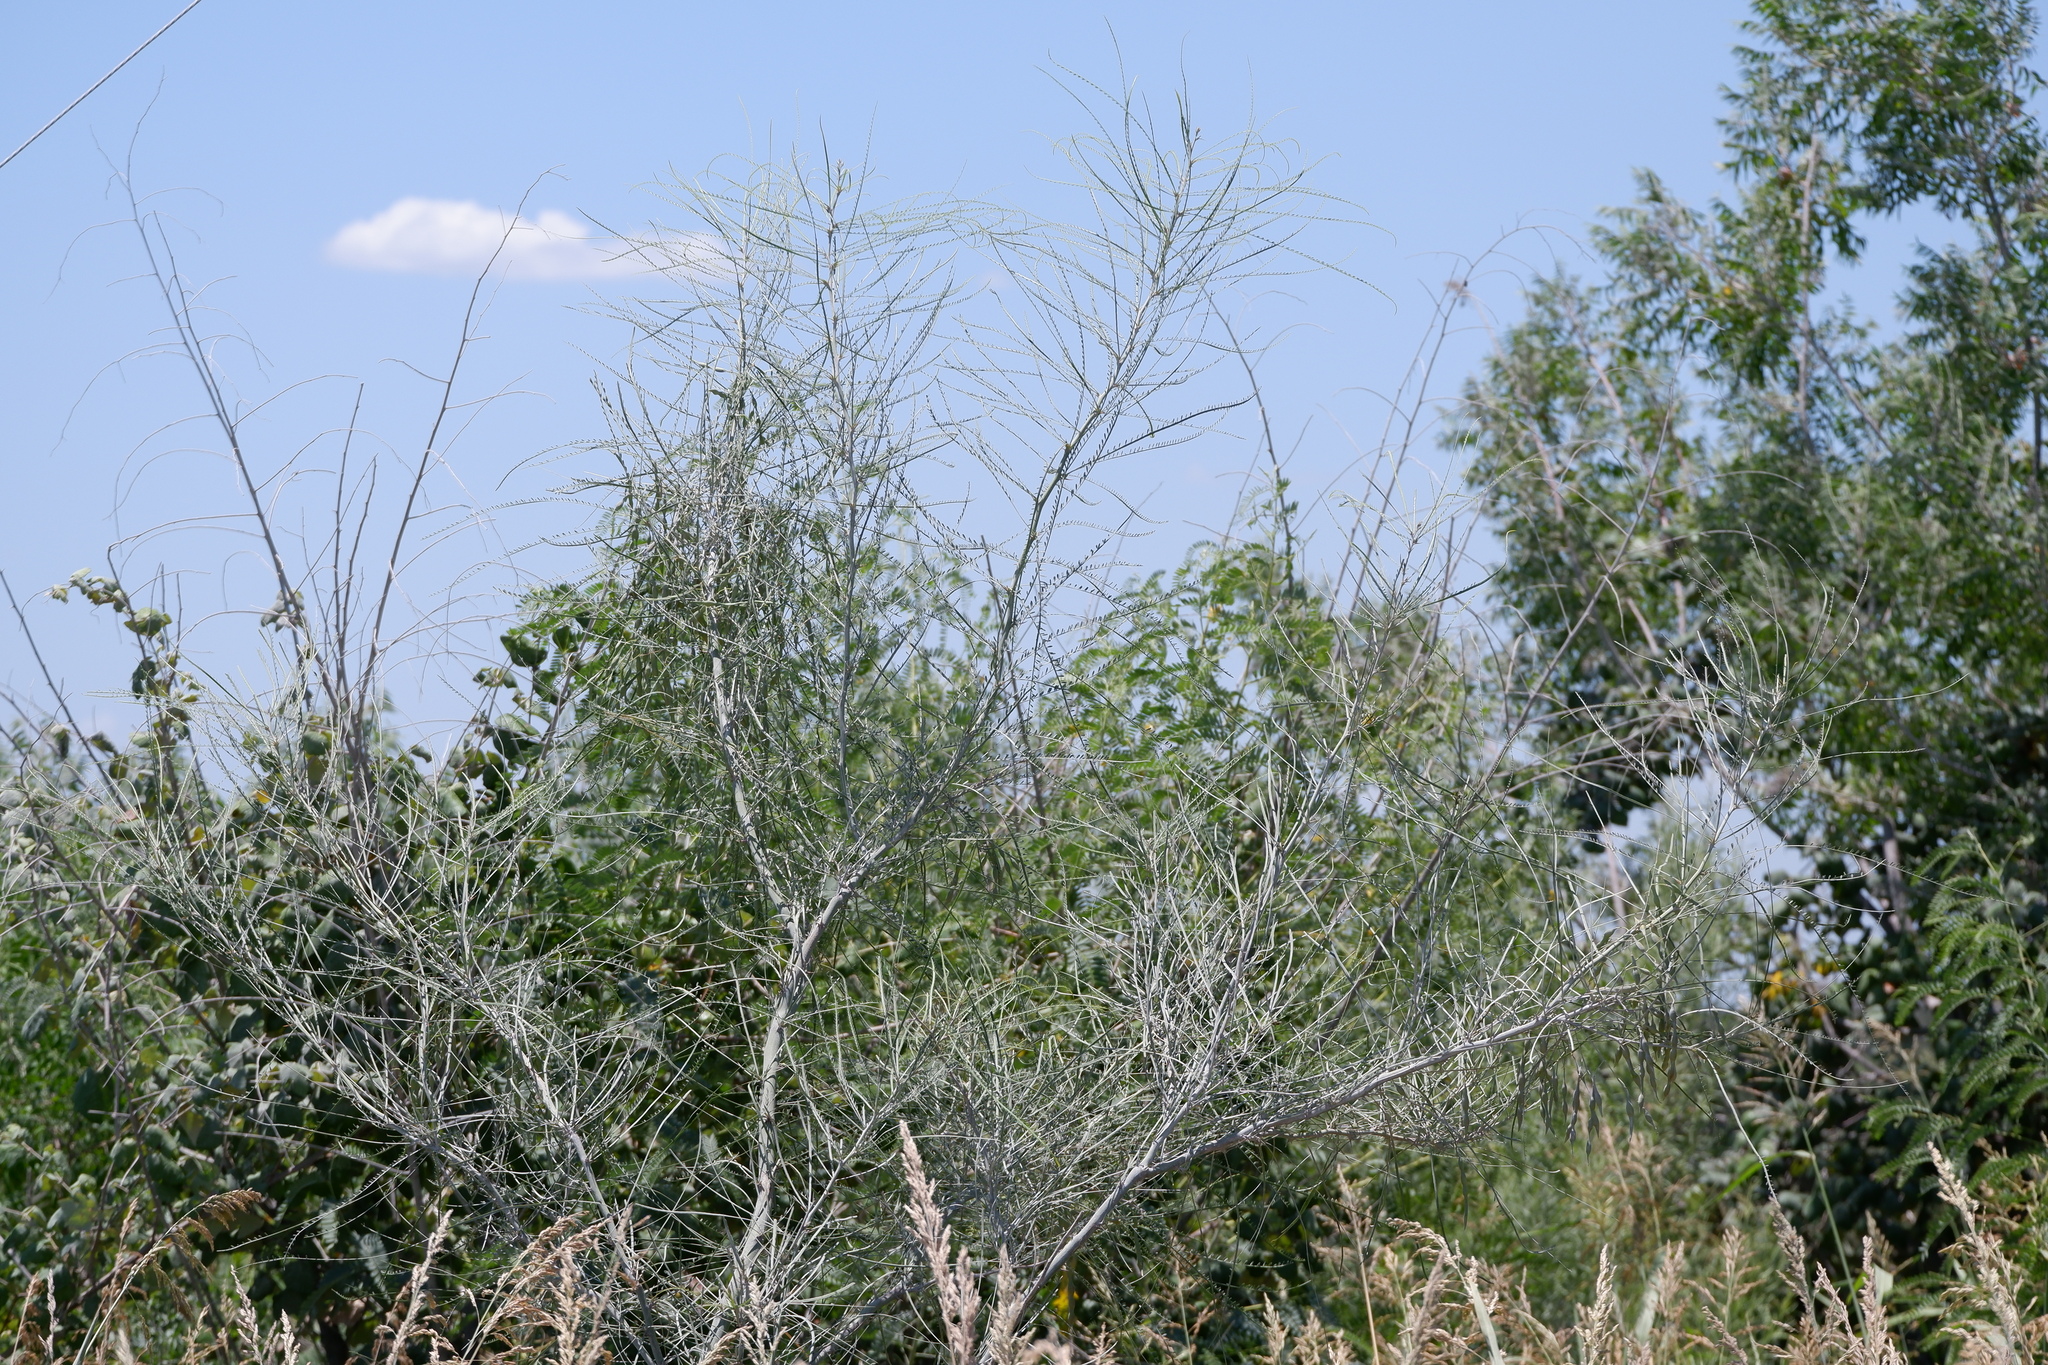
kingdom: Plantae
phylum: Tracheophyta
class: Magnoliopsida
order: Fabales
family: Fabaceae
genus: Parkinsonia
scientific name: Parkinsonia aculeata
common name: Jerusalem thorn
